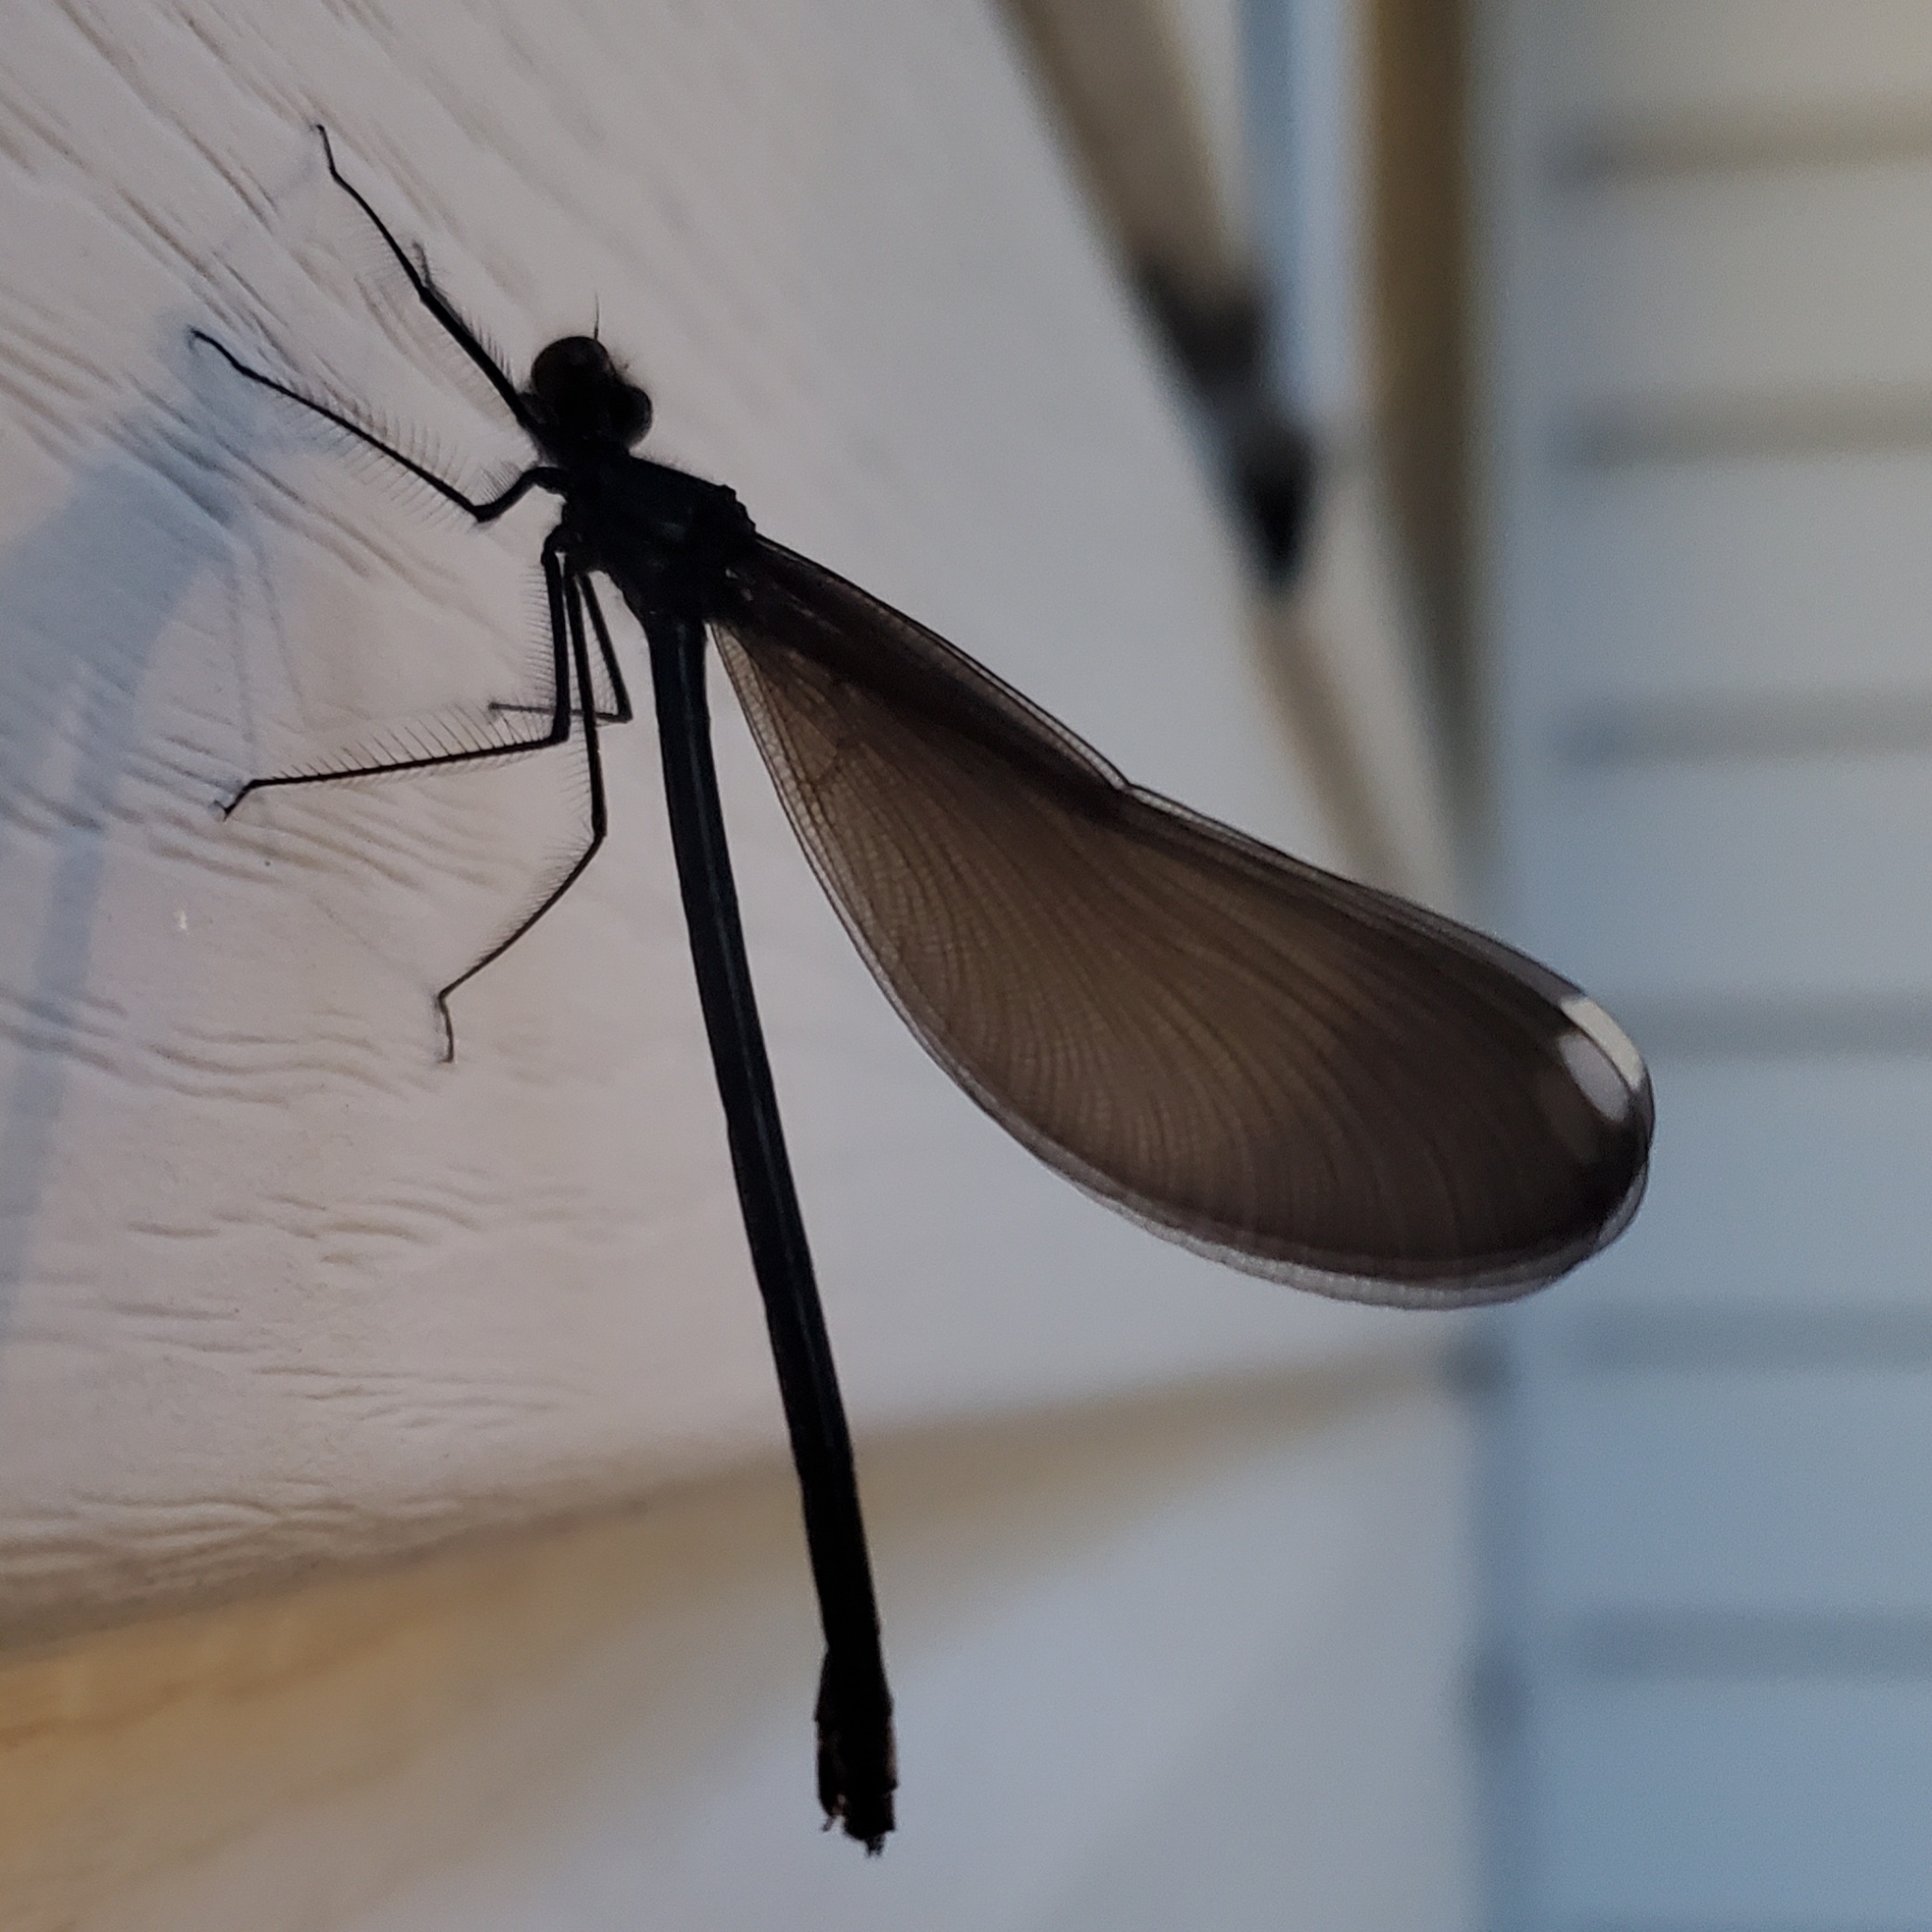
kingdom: Animalia
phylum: Arthropoda
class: Insecta
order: Odonata
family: Calopterygidae
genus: Calopteryx
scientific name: Calopteryx maculata
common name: Ebony jewelwing
